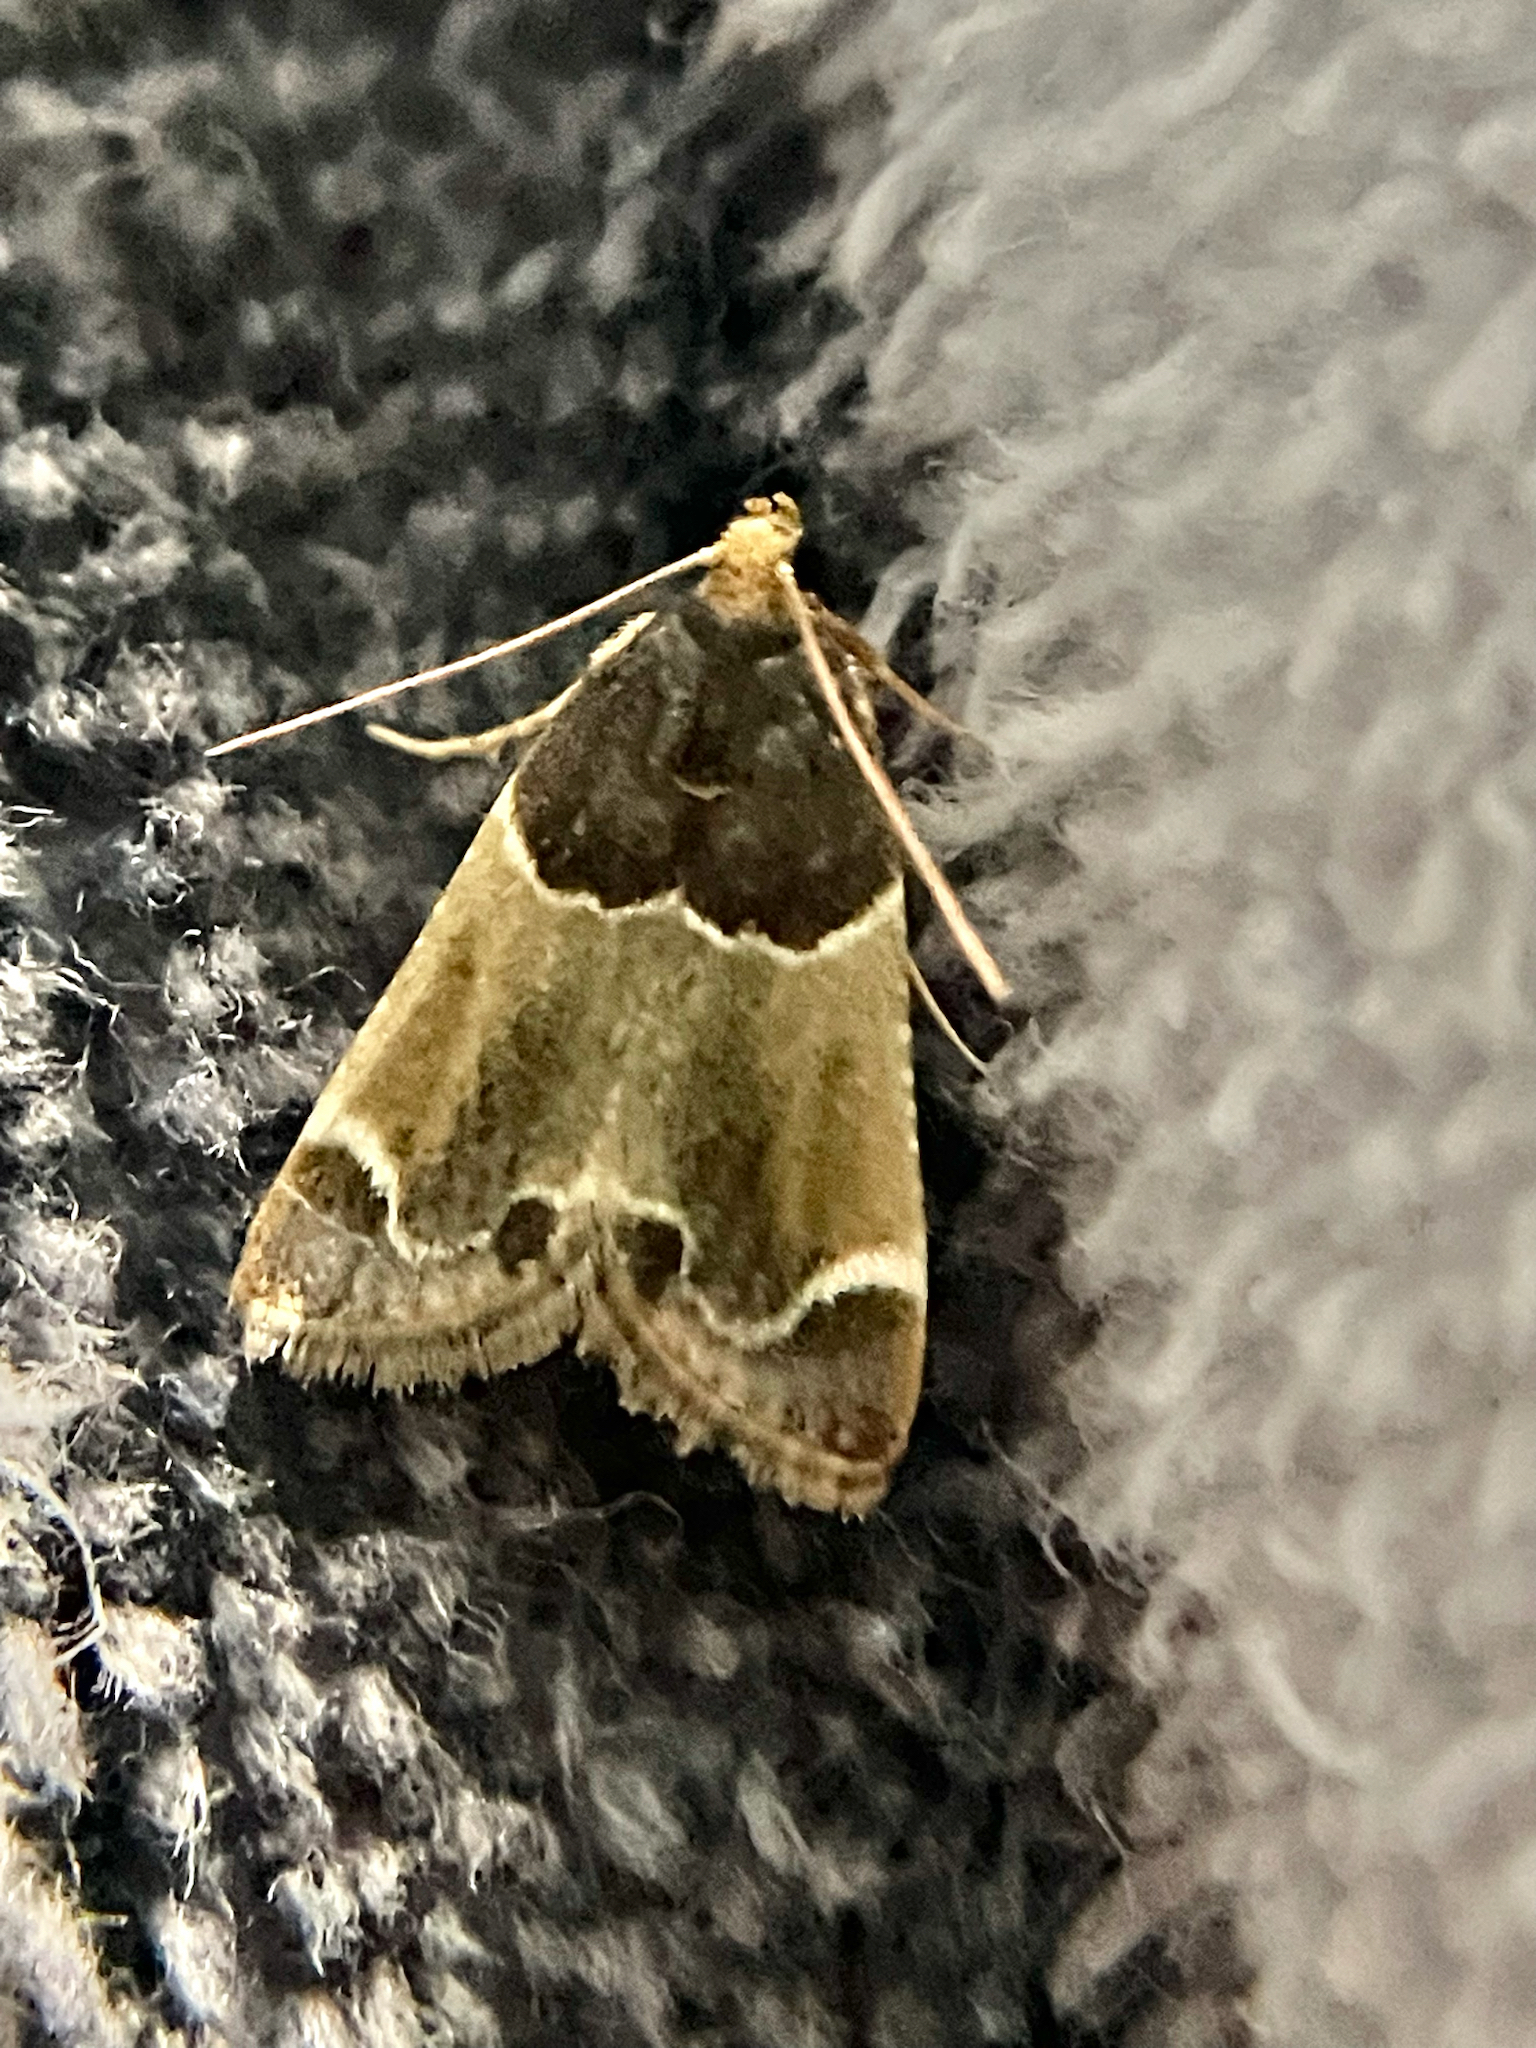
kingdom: Animalia
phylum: Arthropoda
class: Insecta
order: Lepidoptera
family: Pyralidae
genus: Pyralis
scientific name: Pyralis farinalis
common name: Meal moth
